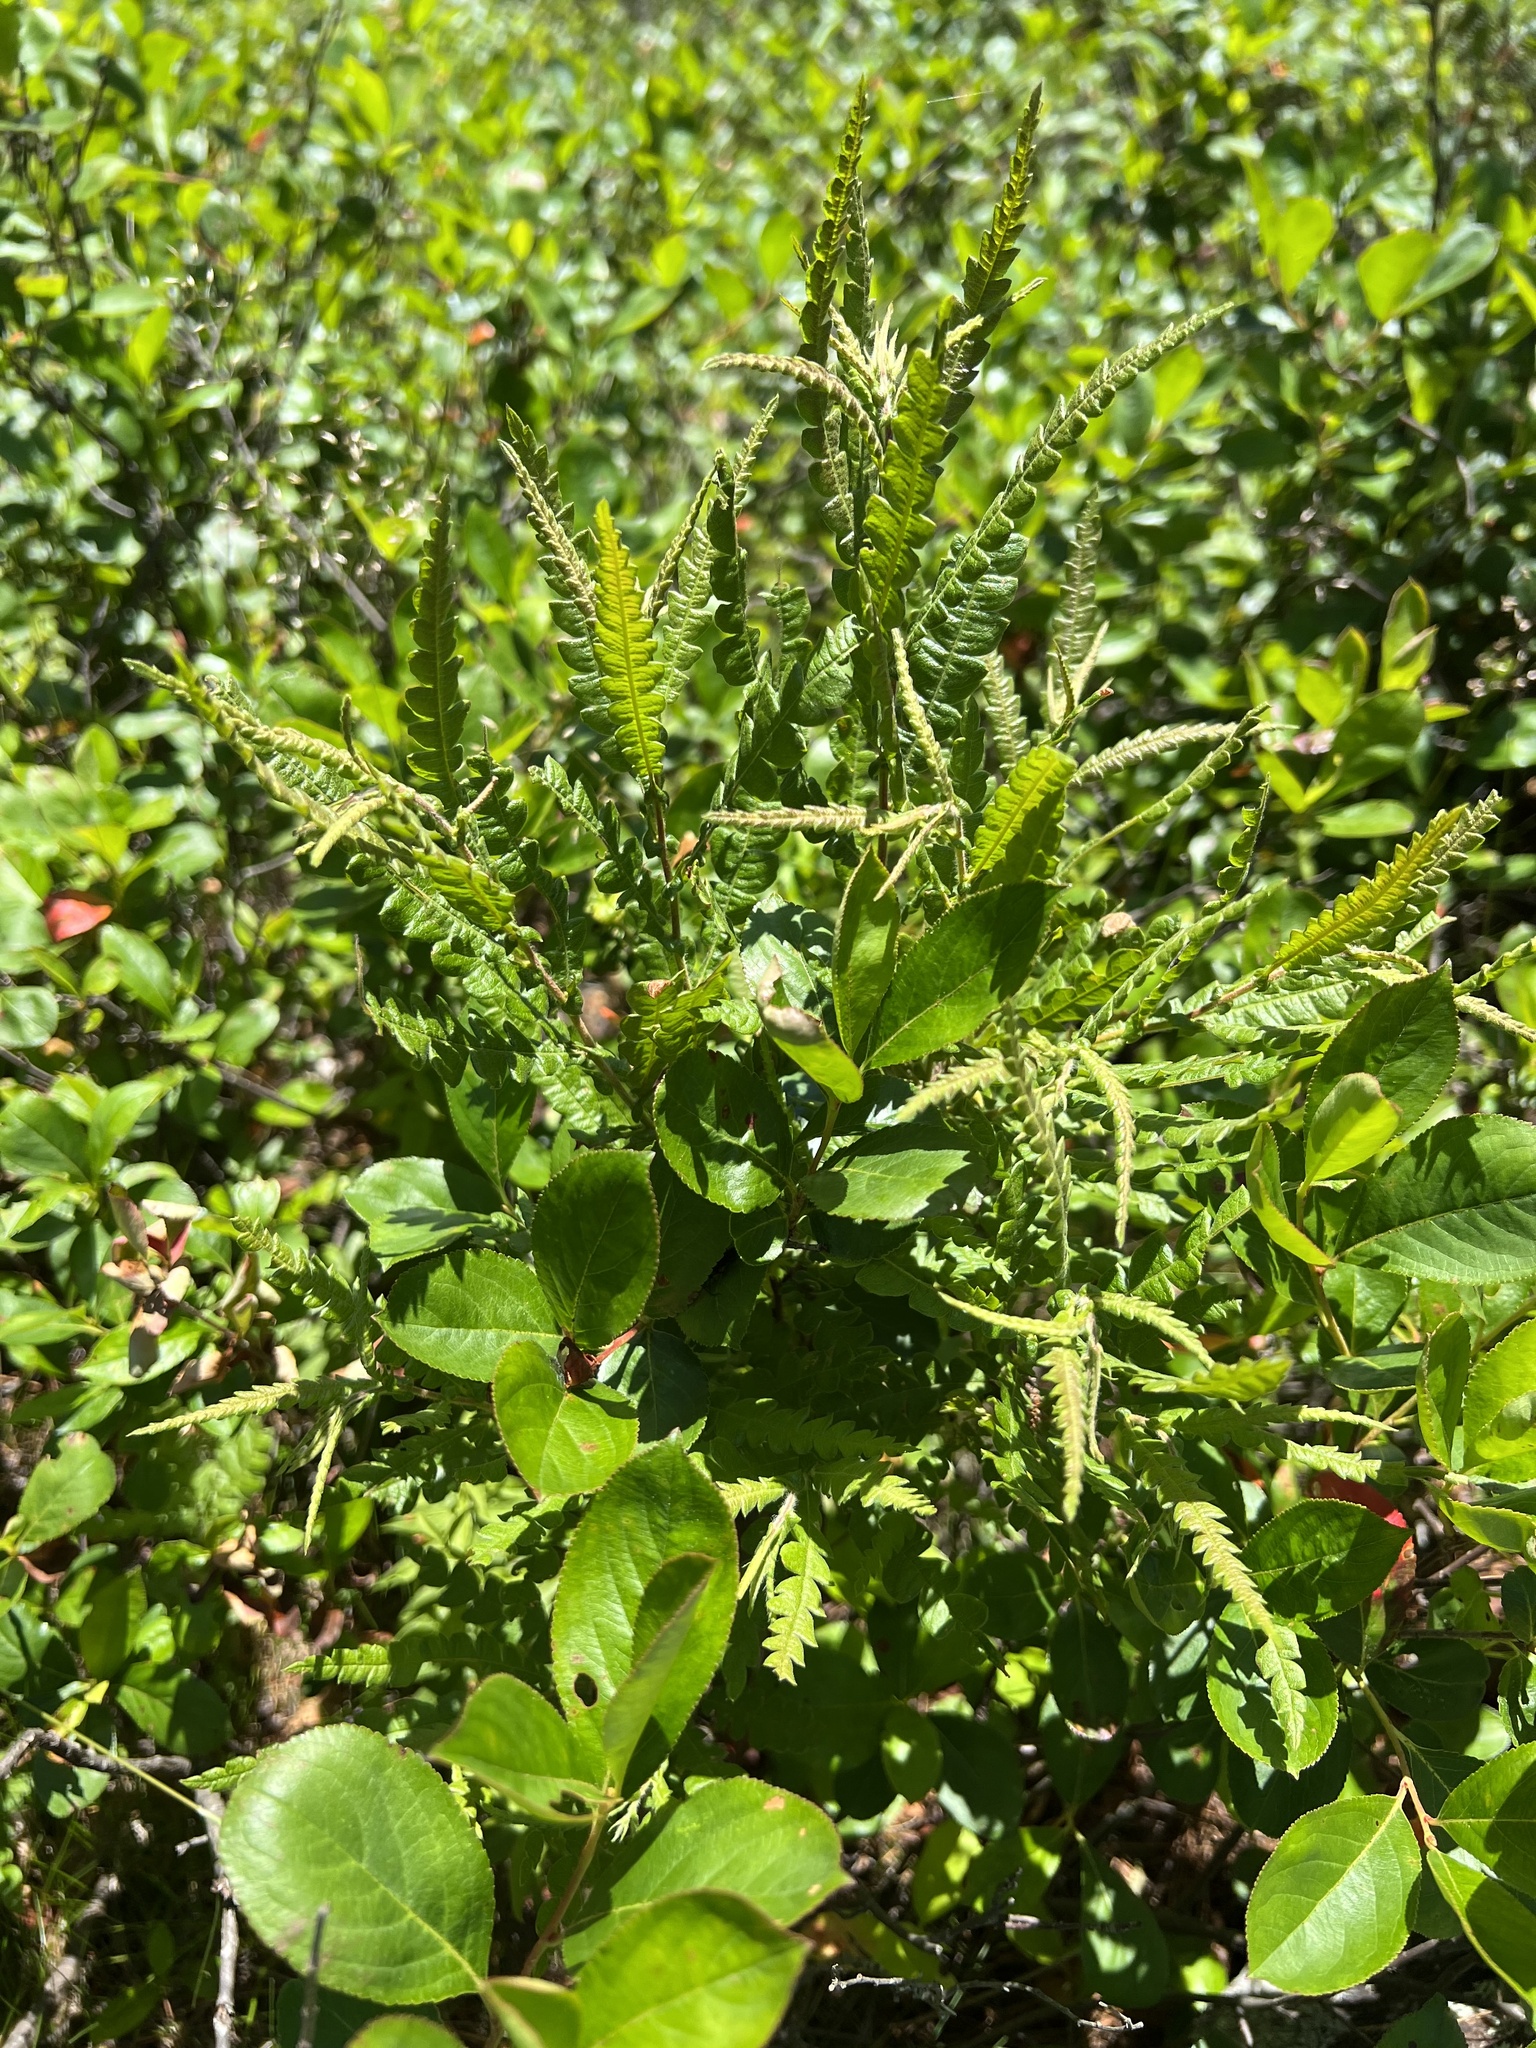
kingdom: Plantae
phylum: Tracheophyta
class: Magnoliopsida
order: Fagales
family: Myricaceae
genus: Comptonia
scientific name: Comptonia peregrina
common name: Sweet-fern
